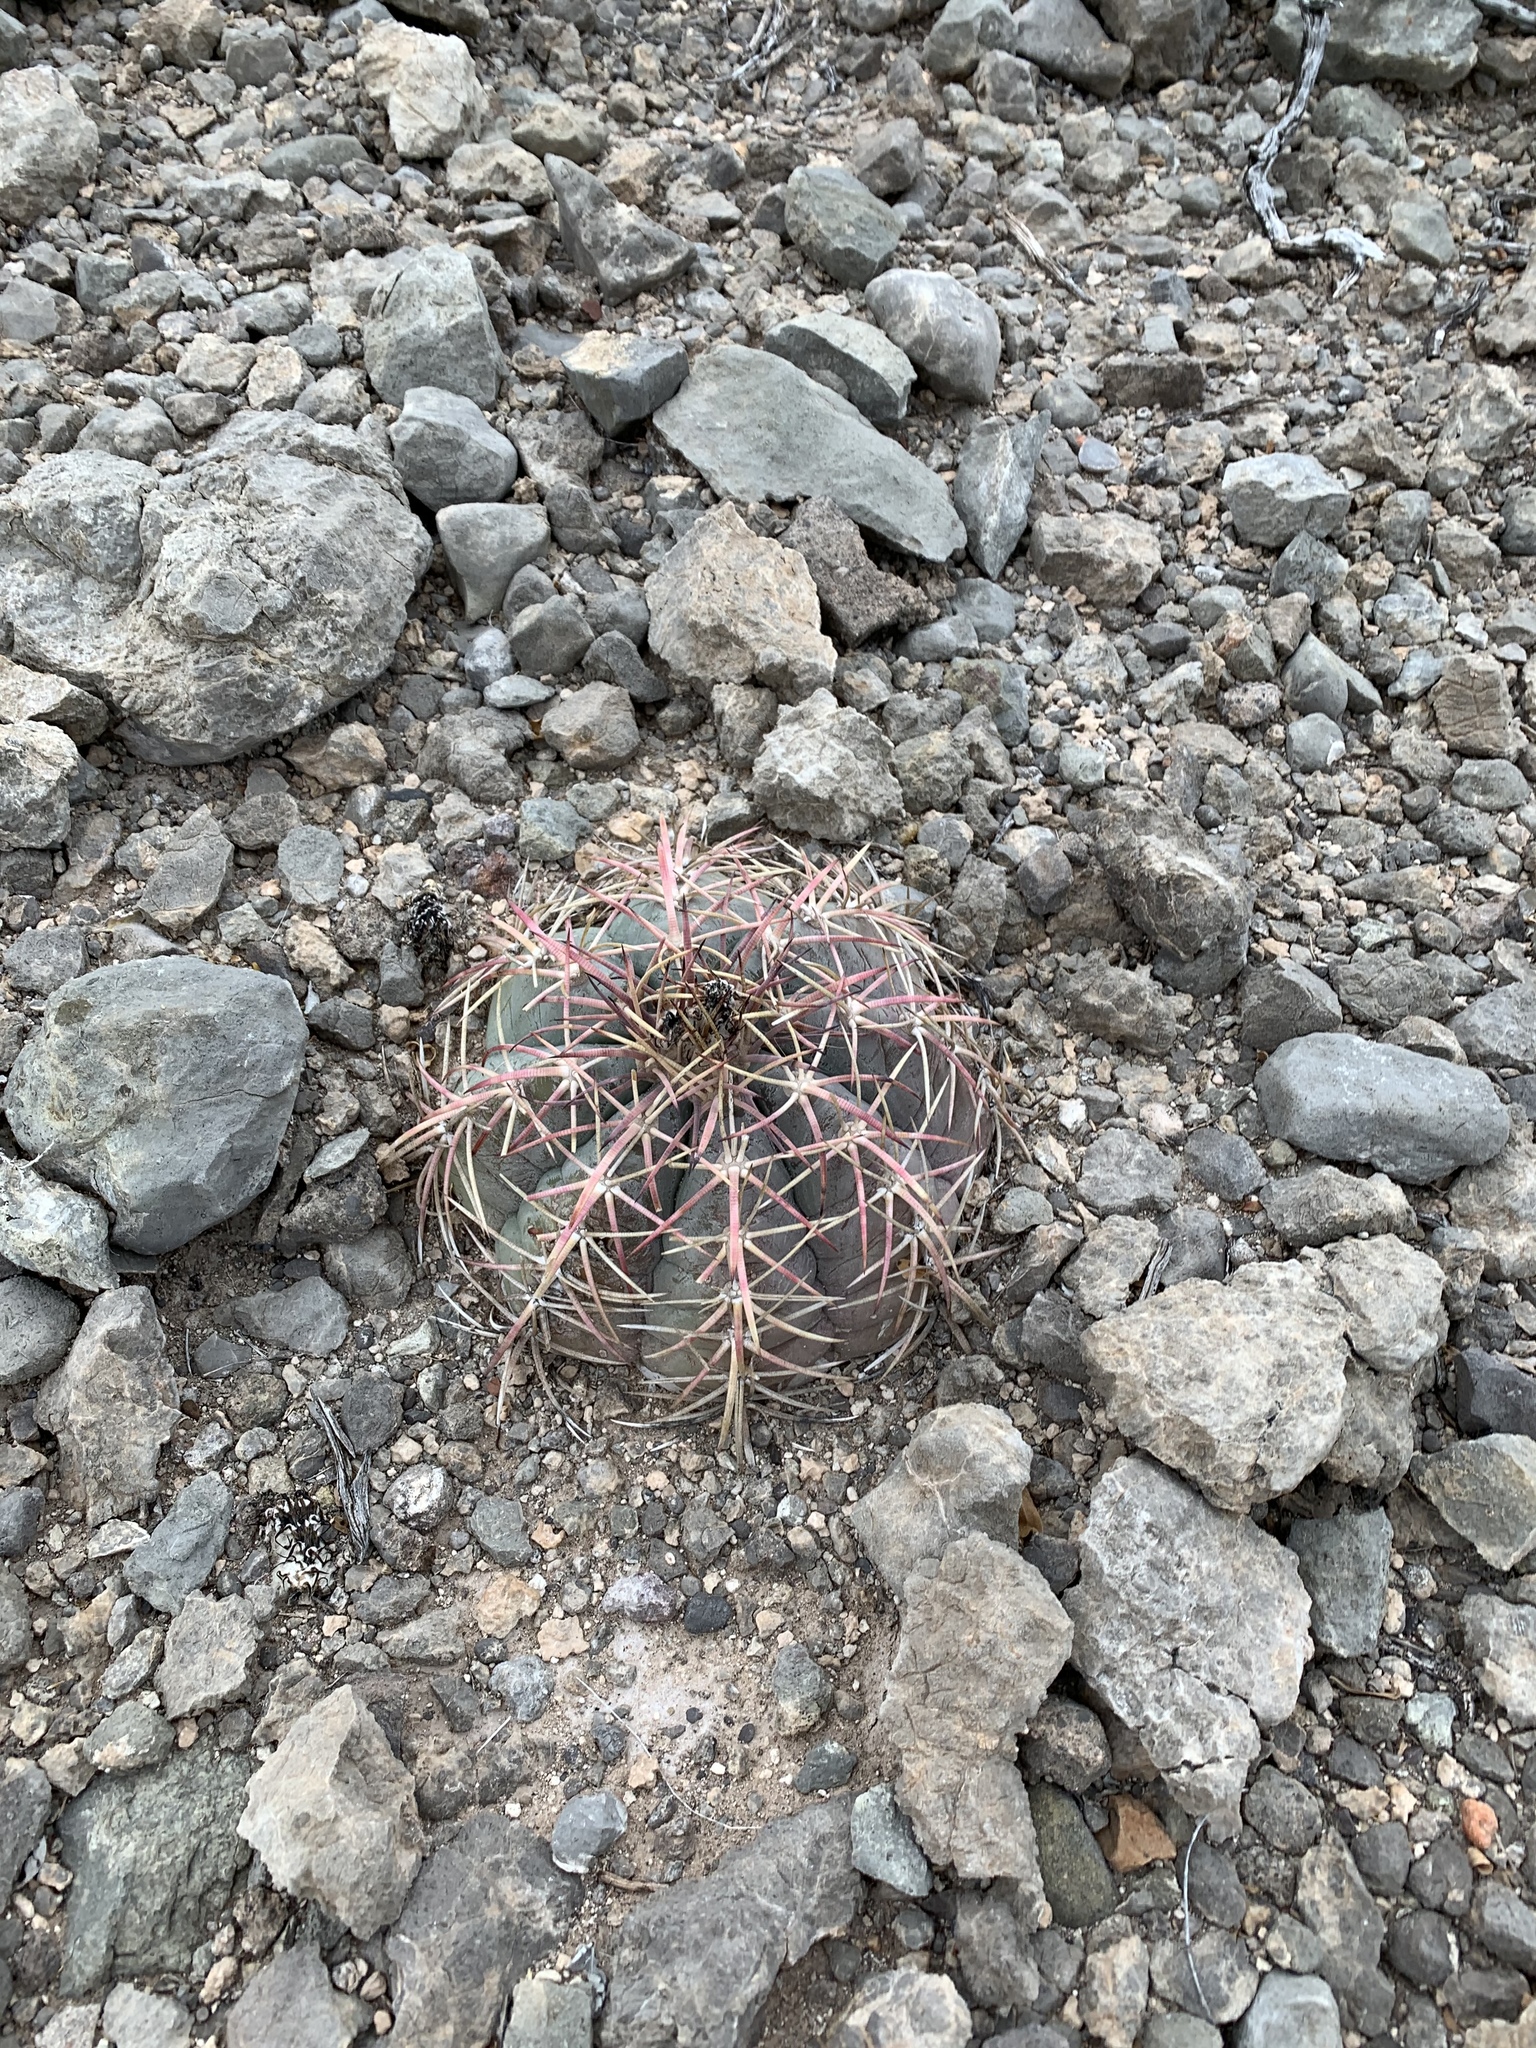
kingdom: Plantae
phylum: Tracheophyta
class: Magnoliopsida
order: Caryophyllales
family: Cactaceae
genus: Echinocactus
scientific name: Echinocactus horizonthalonius
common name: Devilshead
